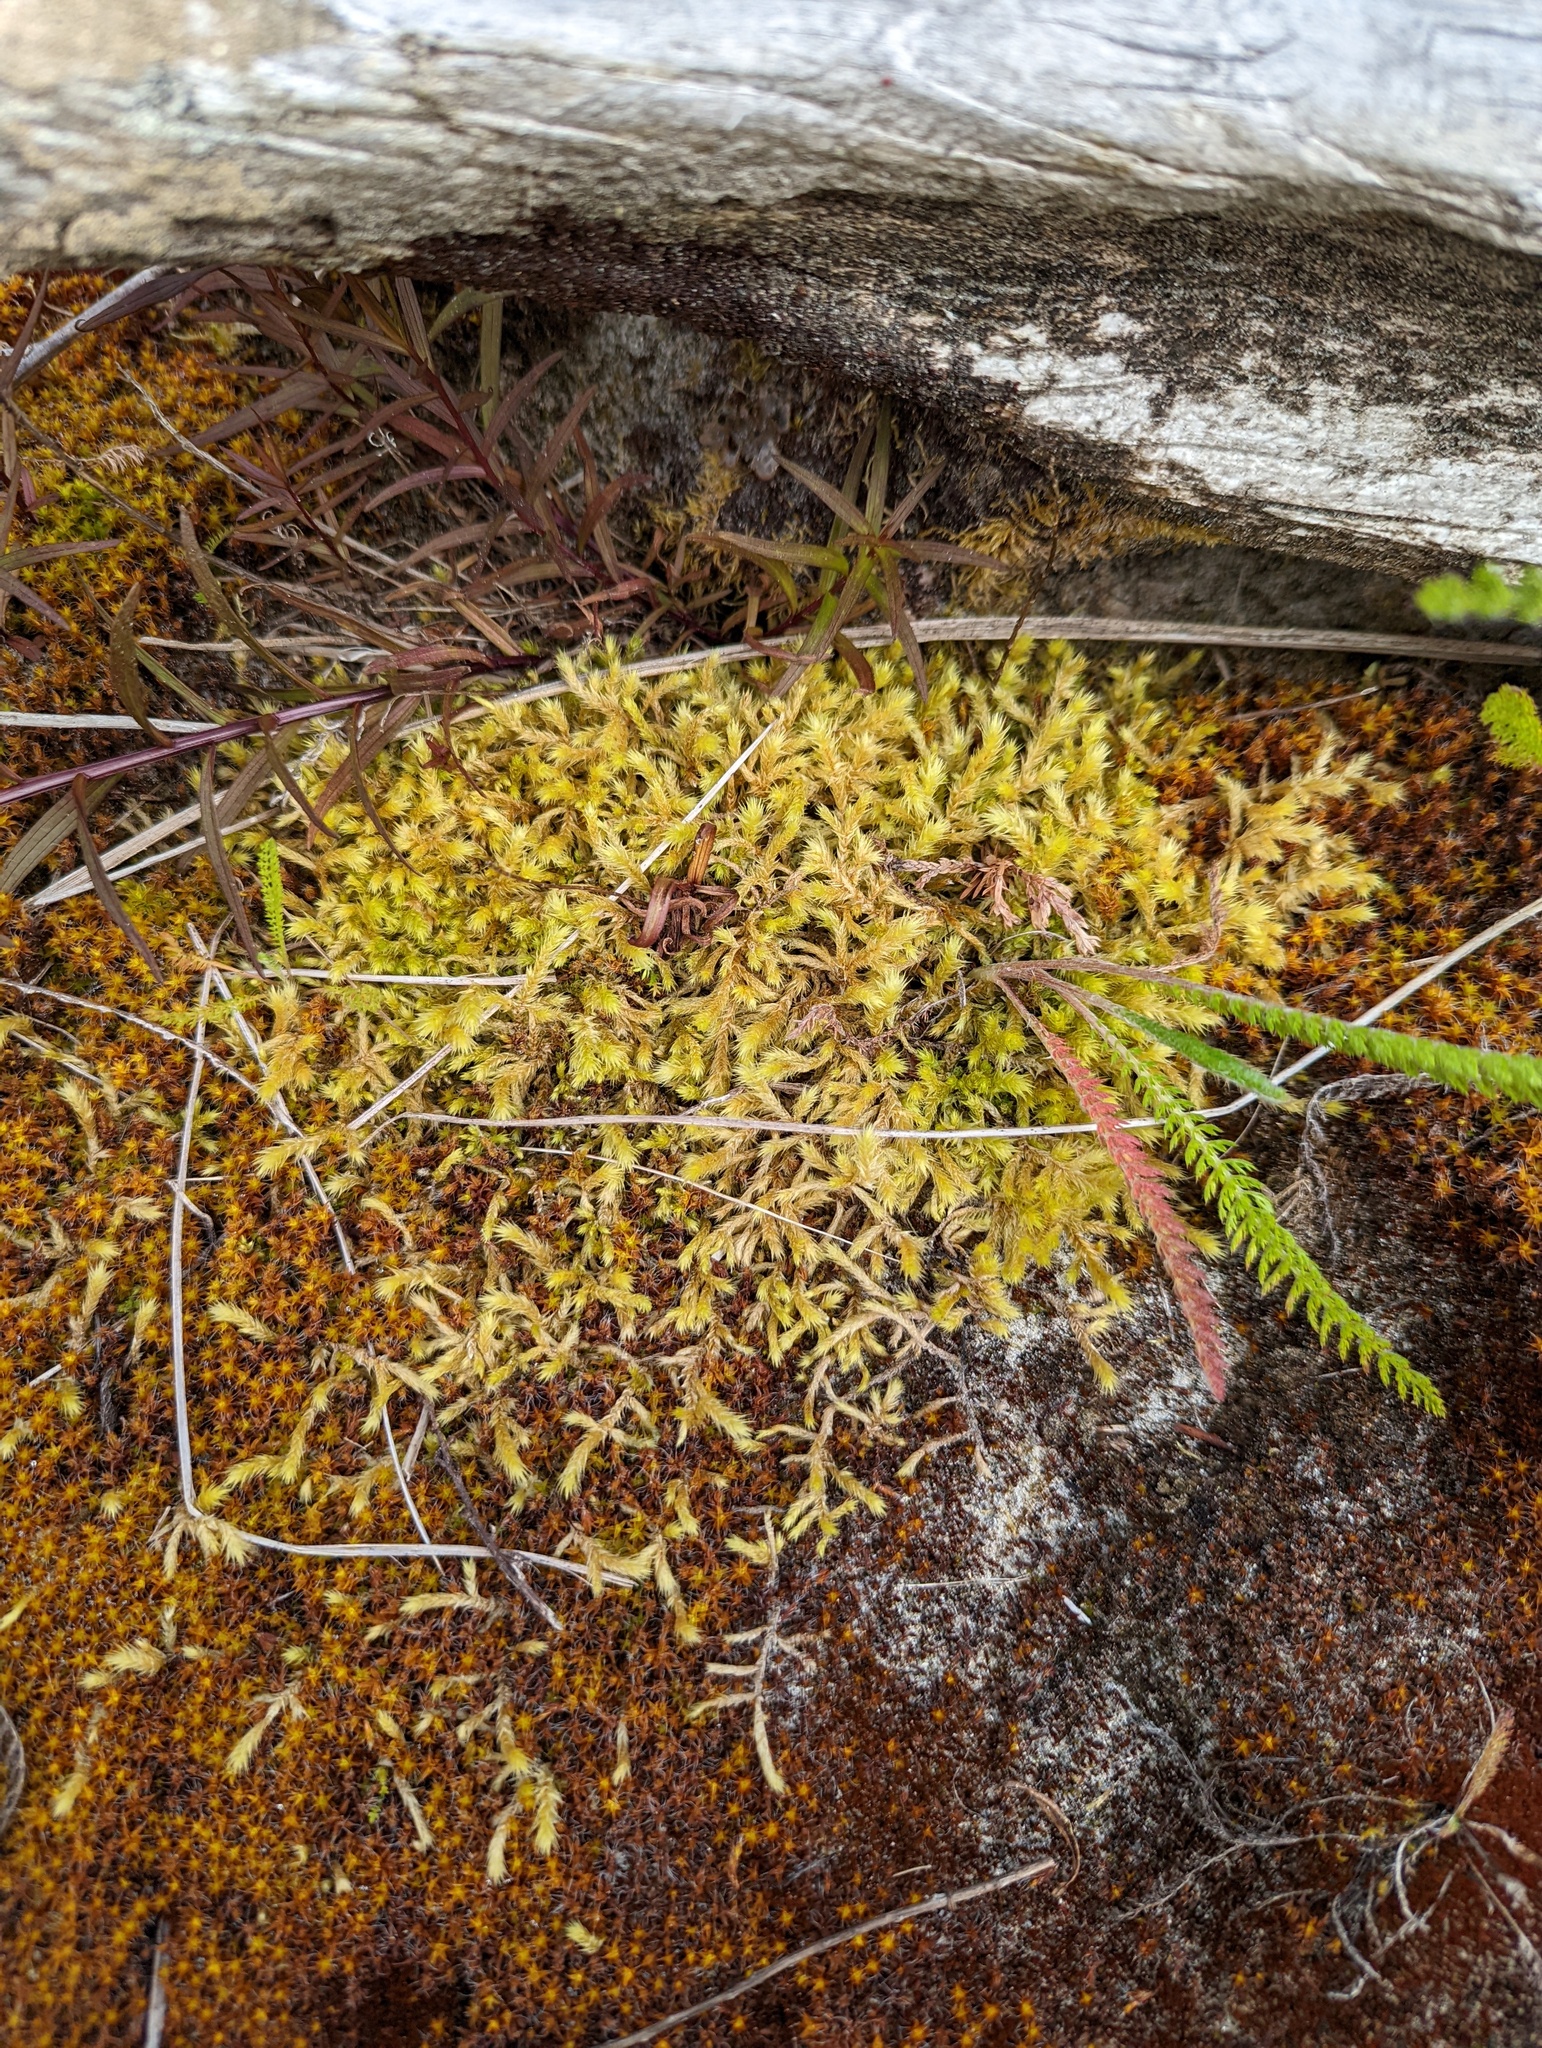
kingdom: Plantae
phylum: Bryophyta
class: Bryopsida
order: Hypnales
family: Hylocomiaceae
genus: Hylocomiadelphus
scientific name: Hylocomiadelphus triquetrus
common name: Rough goose neck moss
